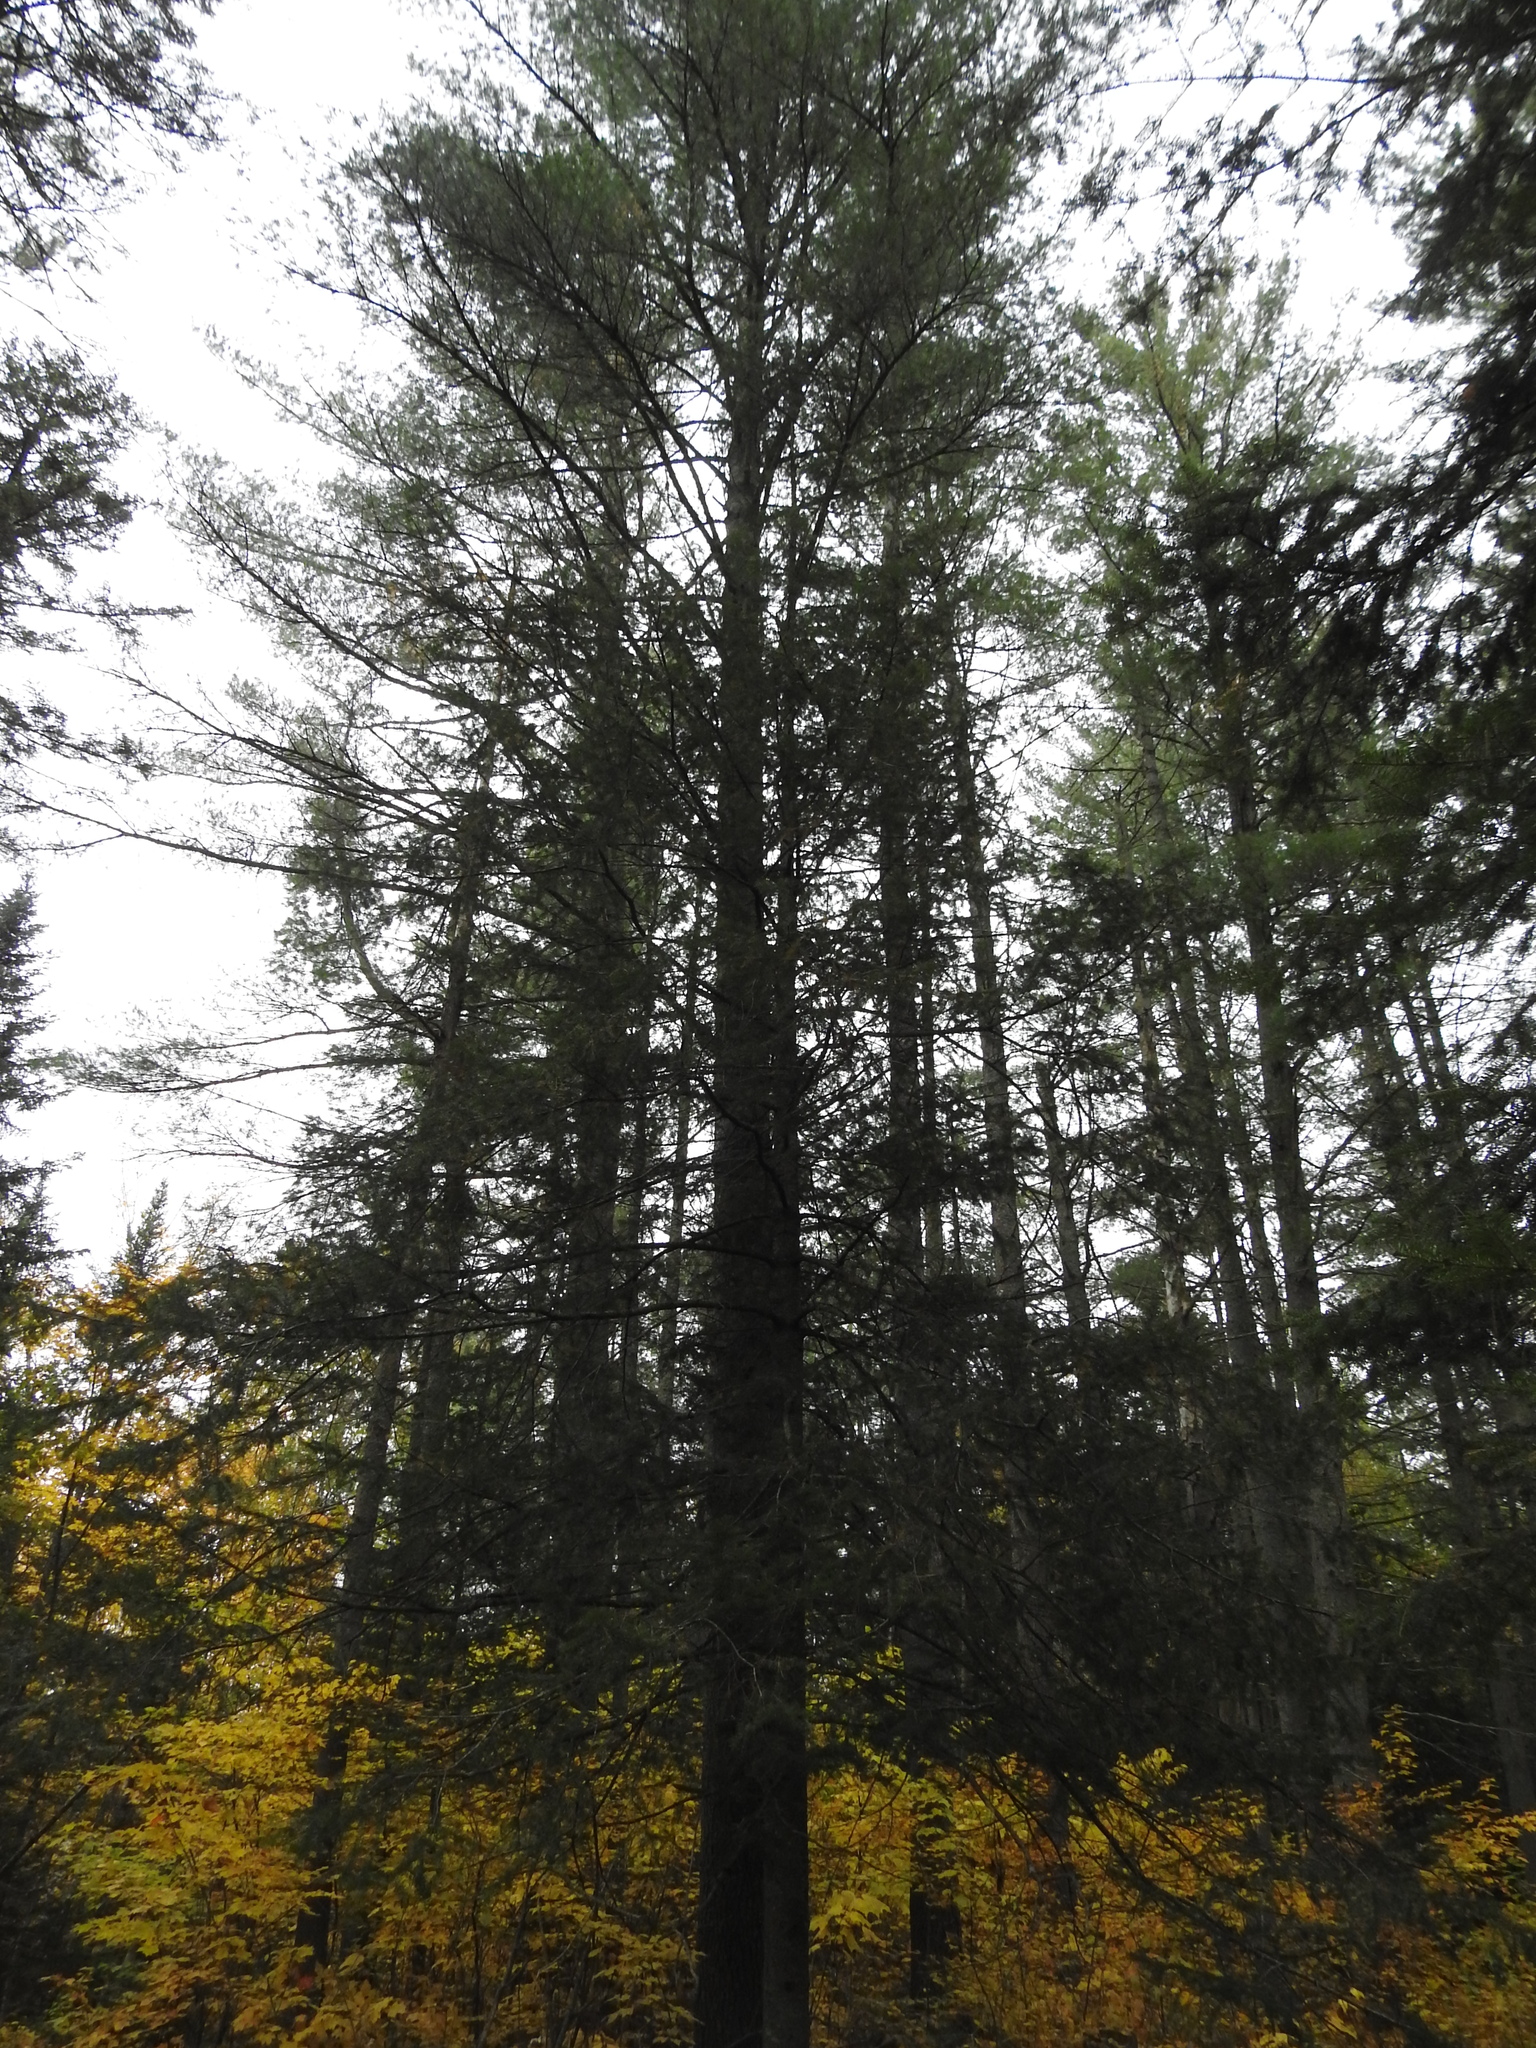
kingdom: Plantae
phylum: Tracheophyta
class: Pinopsida
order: Pinales
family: Pinaceae
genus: Abies
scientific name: Abies balsamea
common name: Balsam fir
